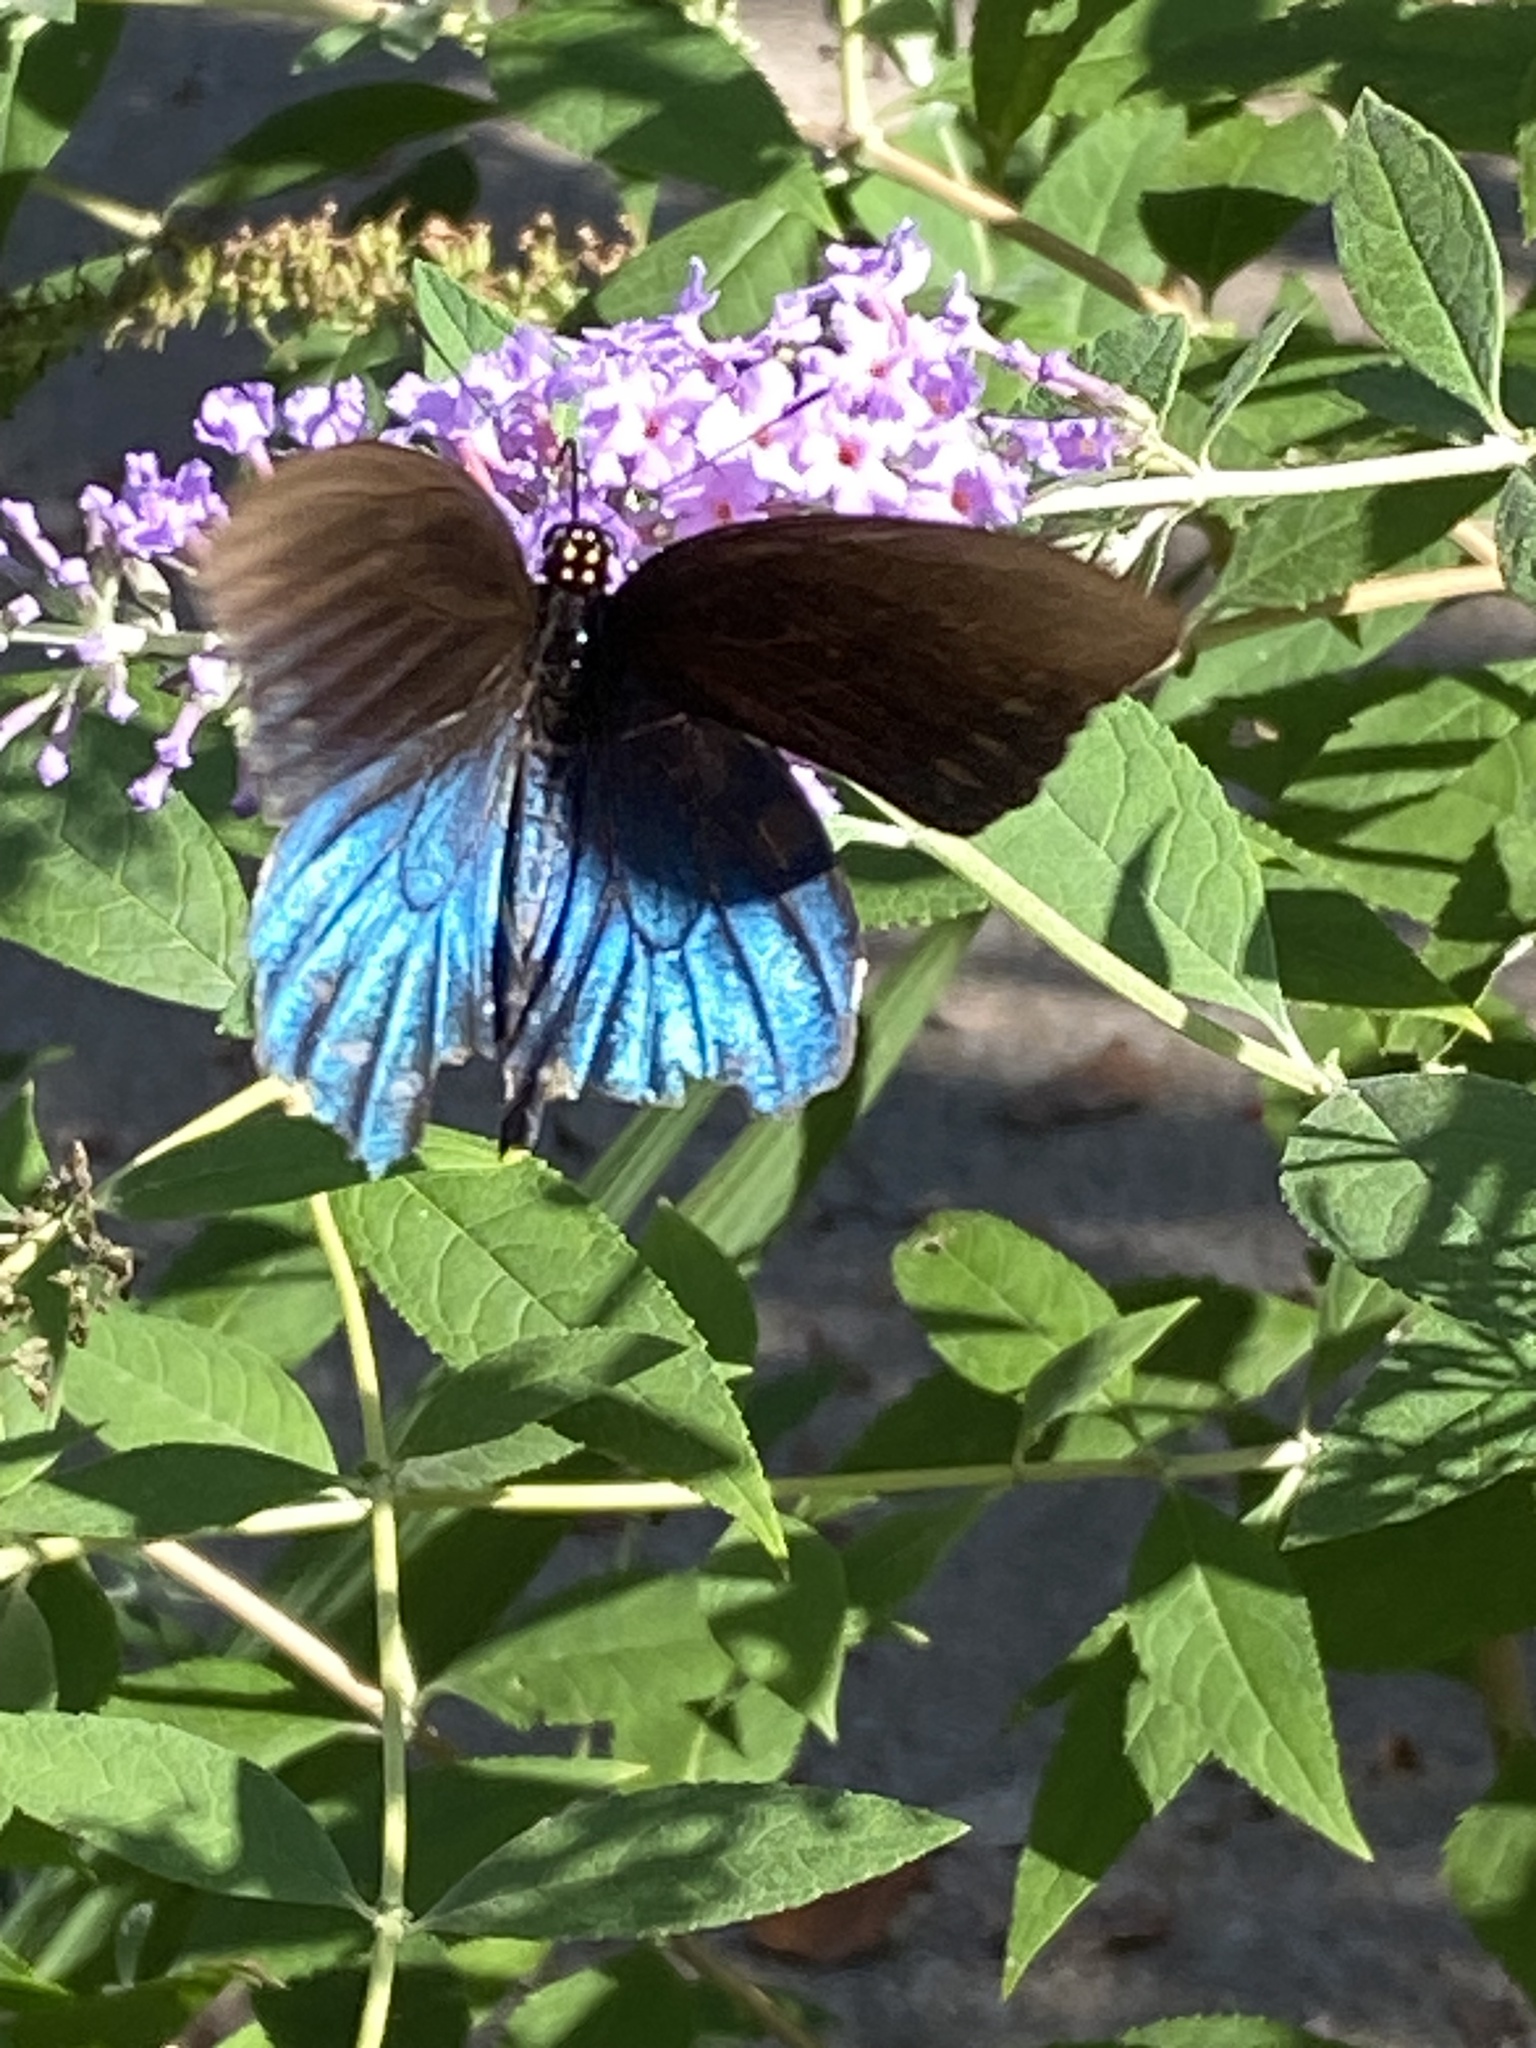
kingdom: Animalia
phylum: Arthropoda
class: Insecta
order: Lepidoptera
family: Papilionidae
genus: Battus
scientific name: Battus philenor
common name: Pipevine swallowtail
